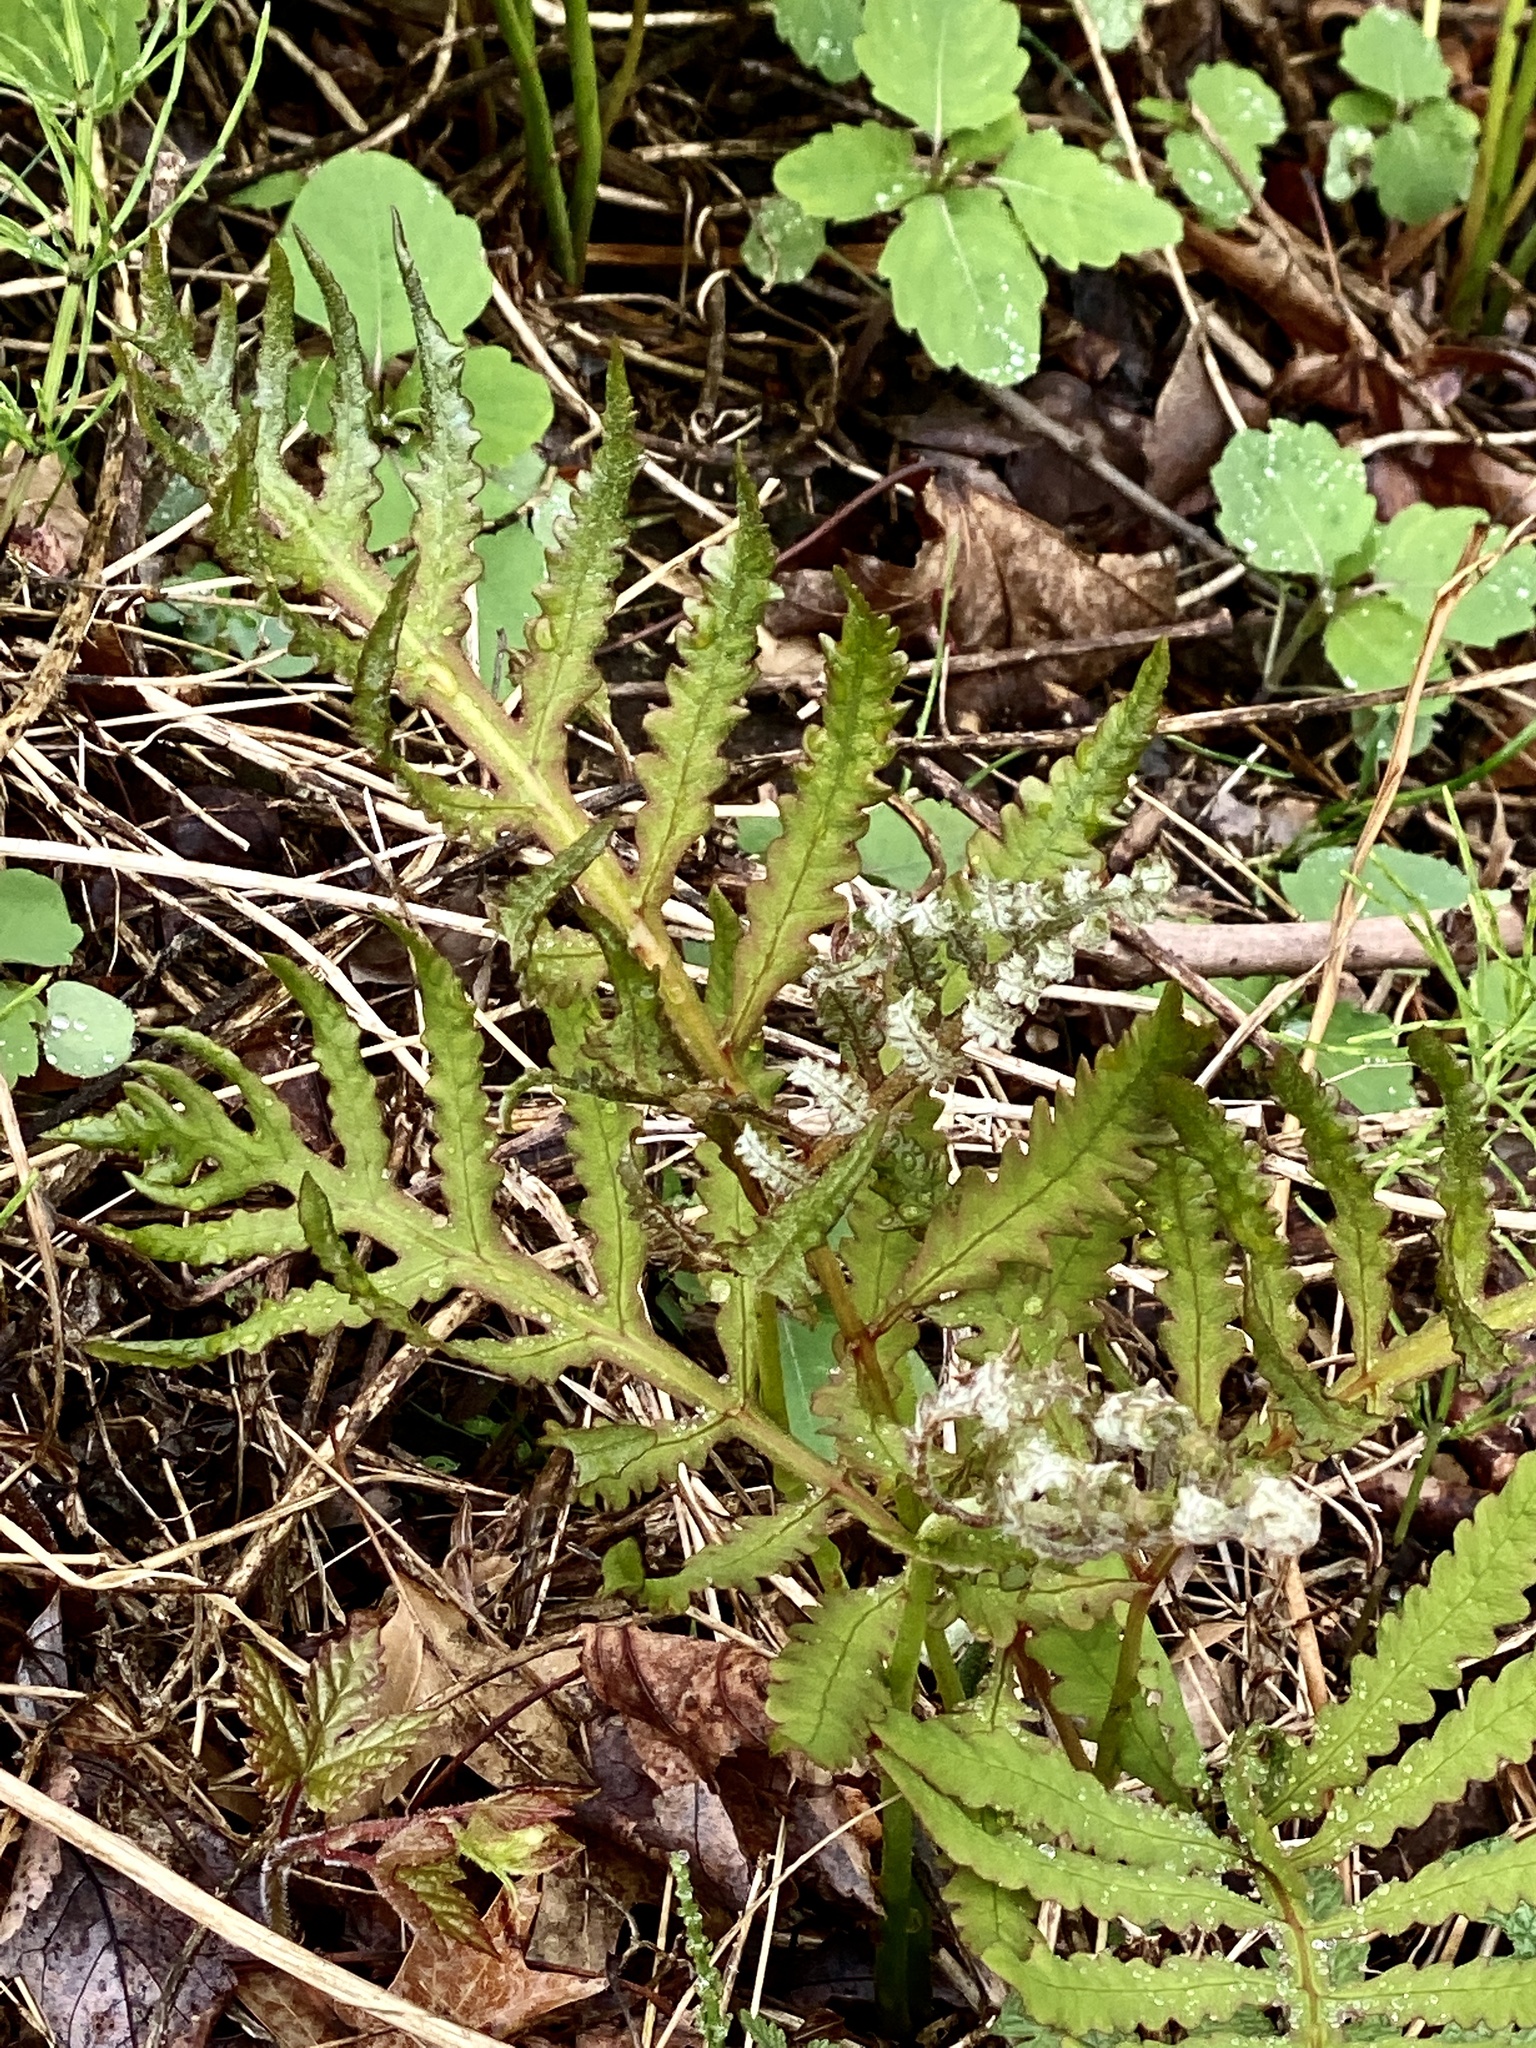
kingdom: Plantae
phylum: Tracheophyta
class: Polypodiopsida
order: Polypodiales
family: Onocleaceae
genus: Onoclea
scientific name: Onoclea sensibilis
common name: Sensitive fern
